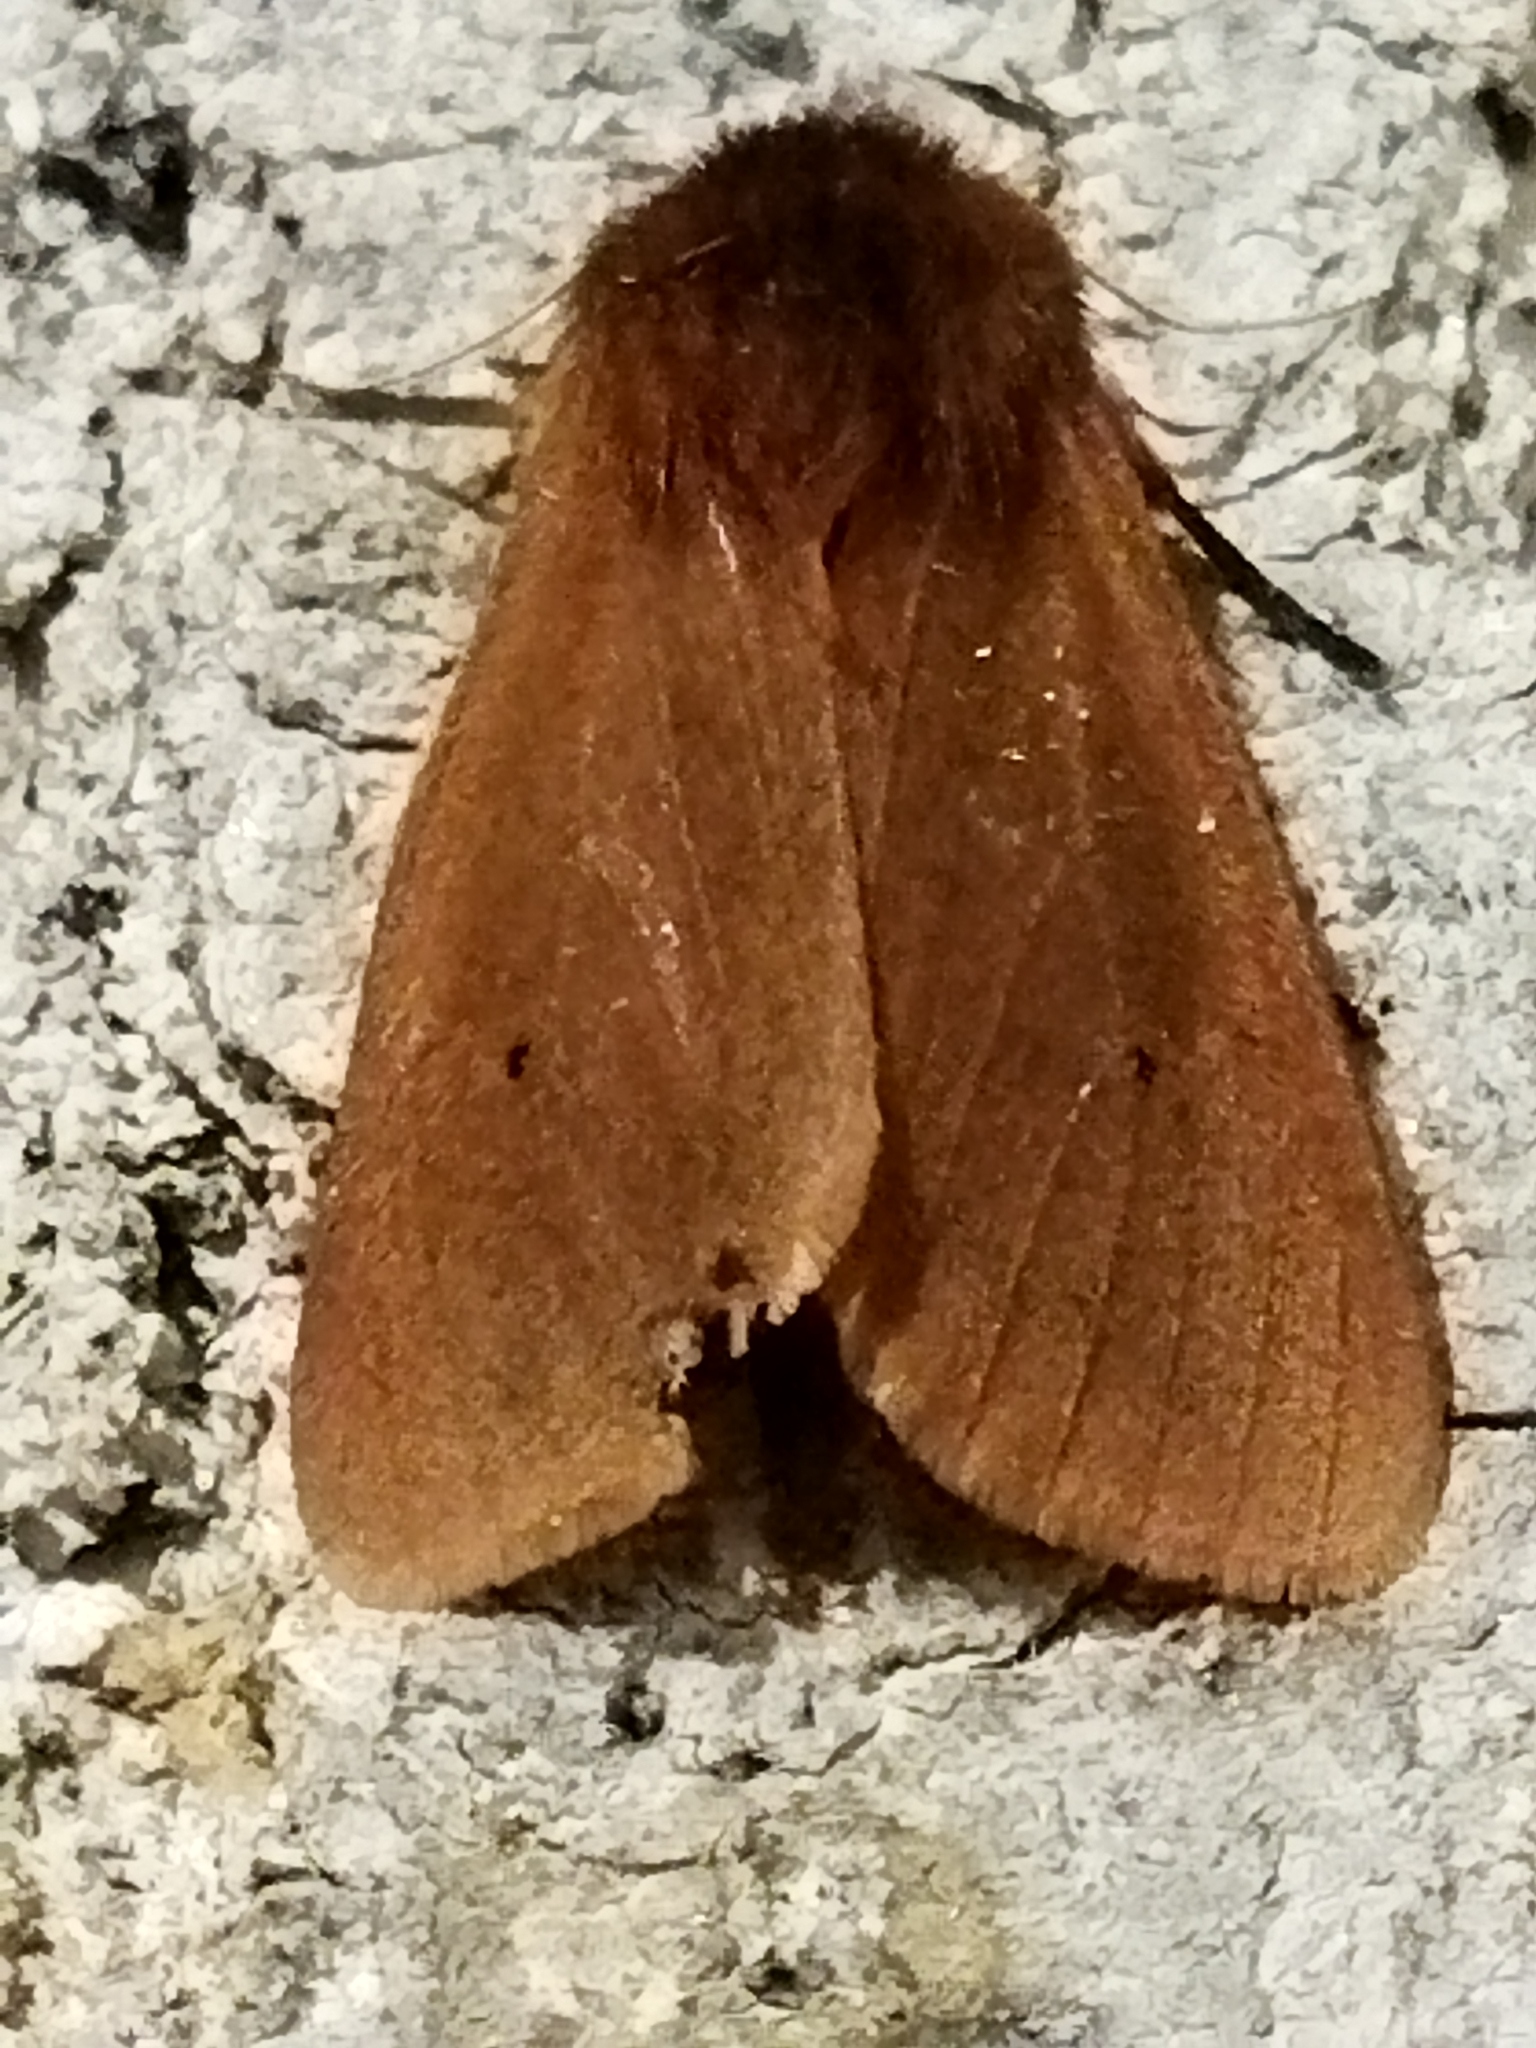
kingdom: Animalia
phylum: Arthropoda
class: Insecta
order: Lepidoptera
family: Erebidae
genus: Phragmatobia
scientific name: Phragmatobia fuliginosa
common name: Ruby tiger
